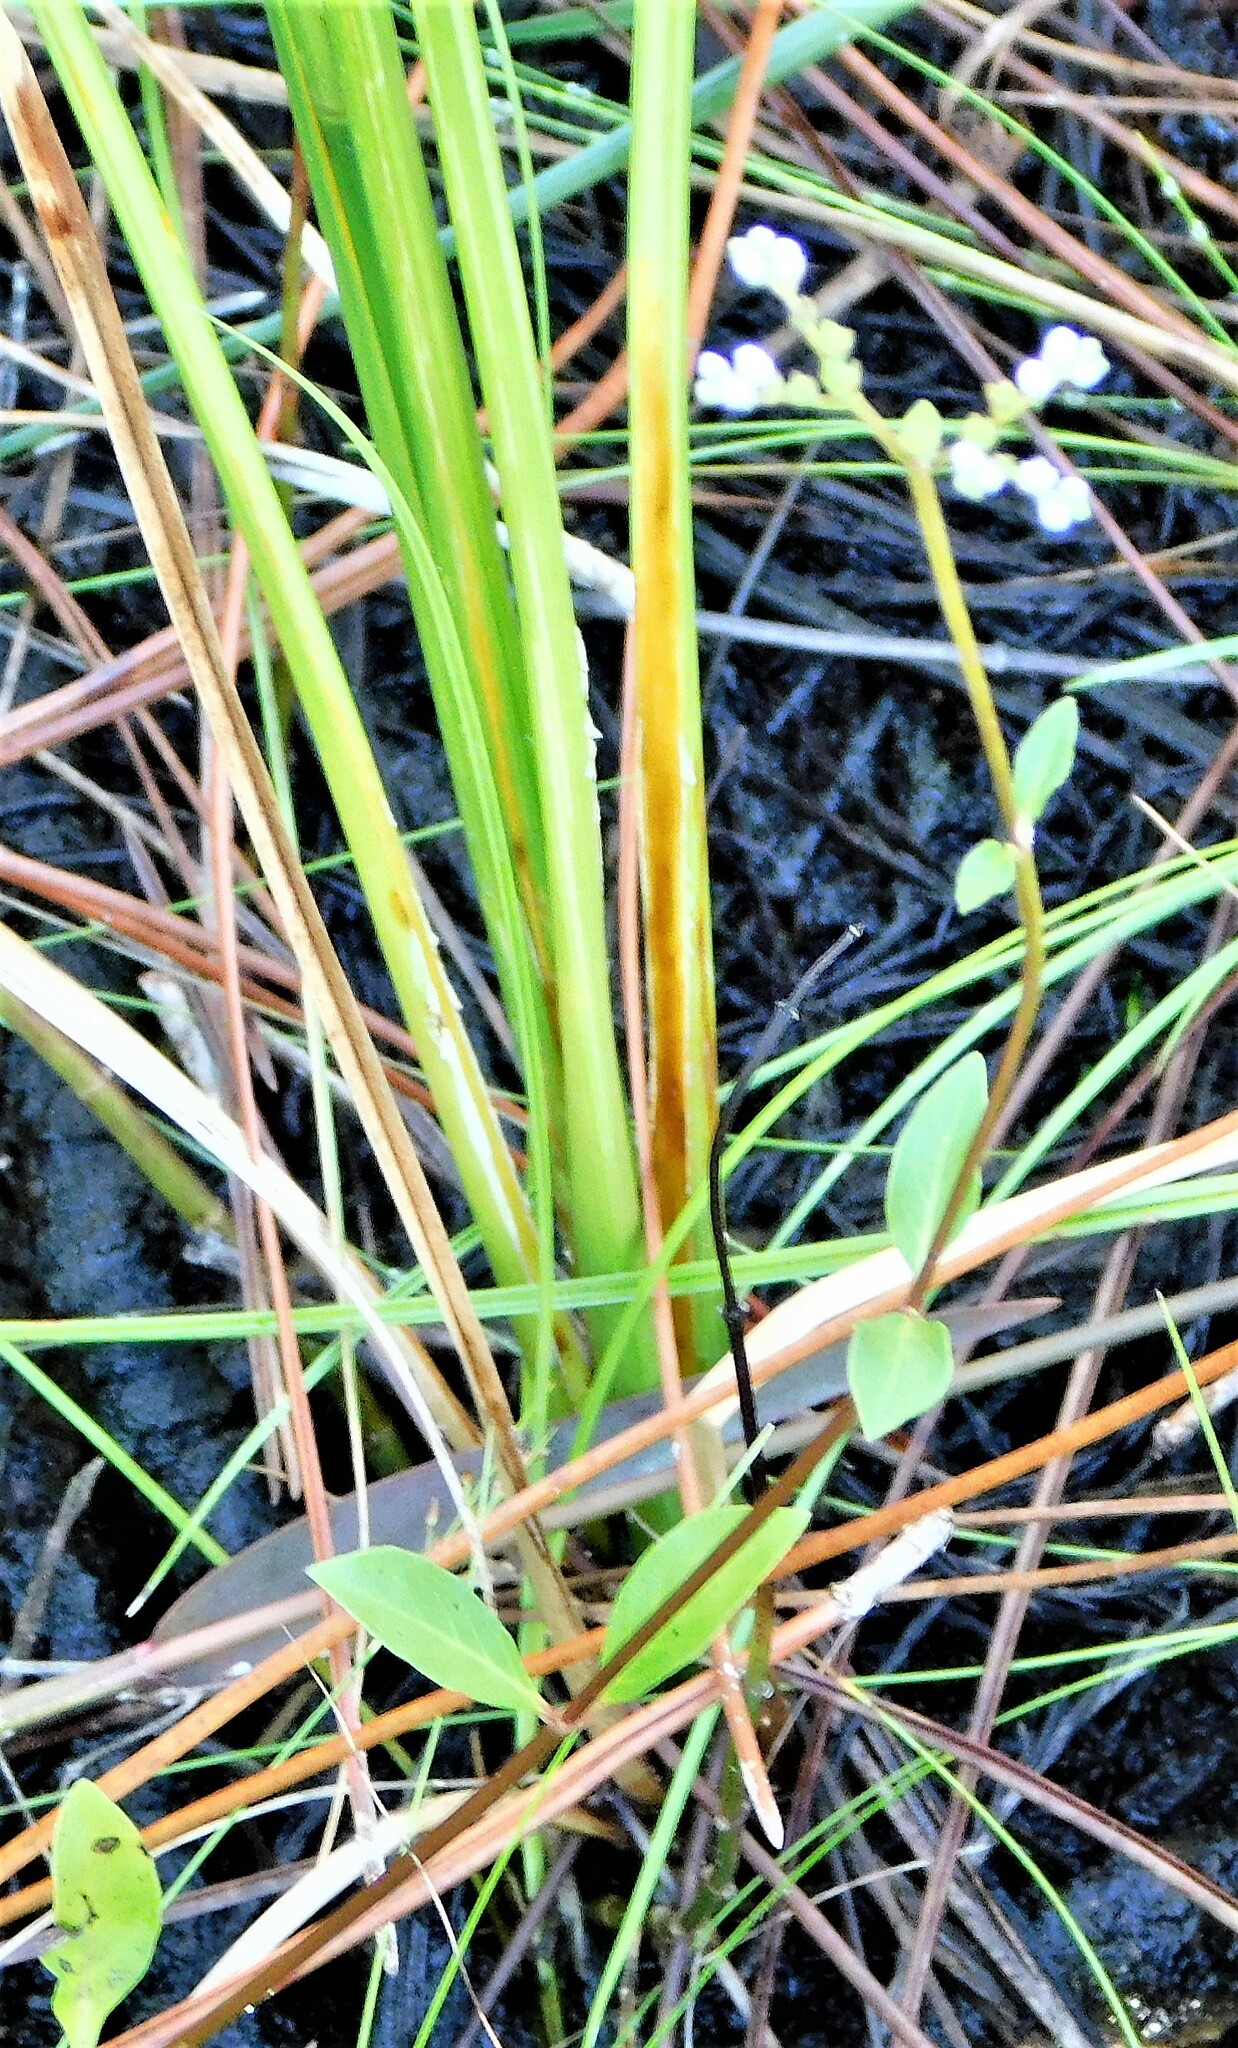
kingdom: Plantae
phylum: Tracheophyta
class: Magnoliopsida
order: Gentianales
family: Loganiaceae
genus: Mitreola
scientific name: Mitreola petiolata
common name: Lax hornpod
